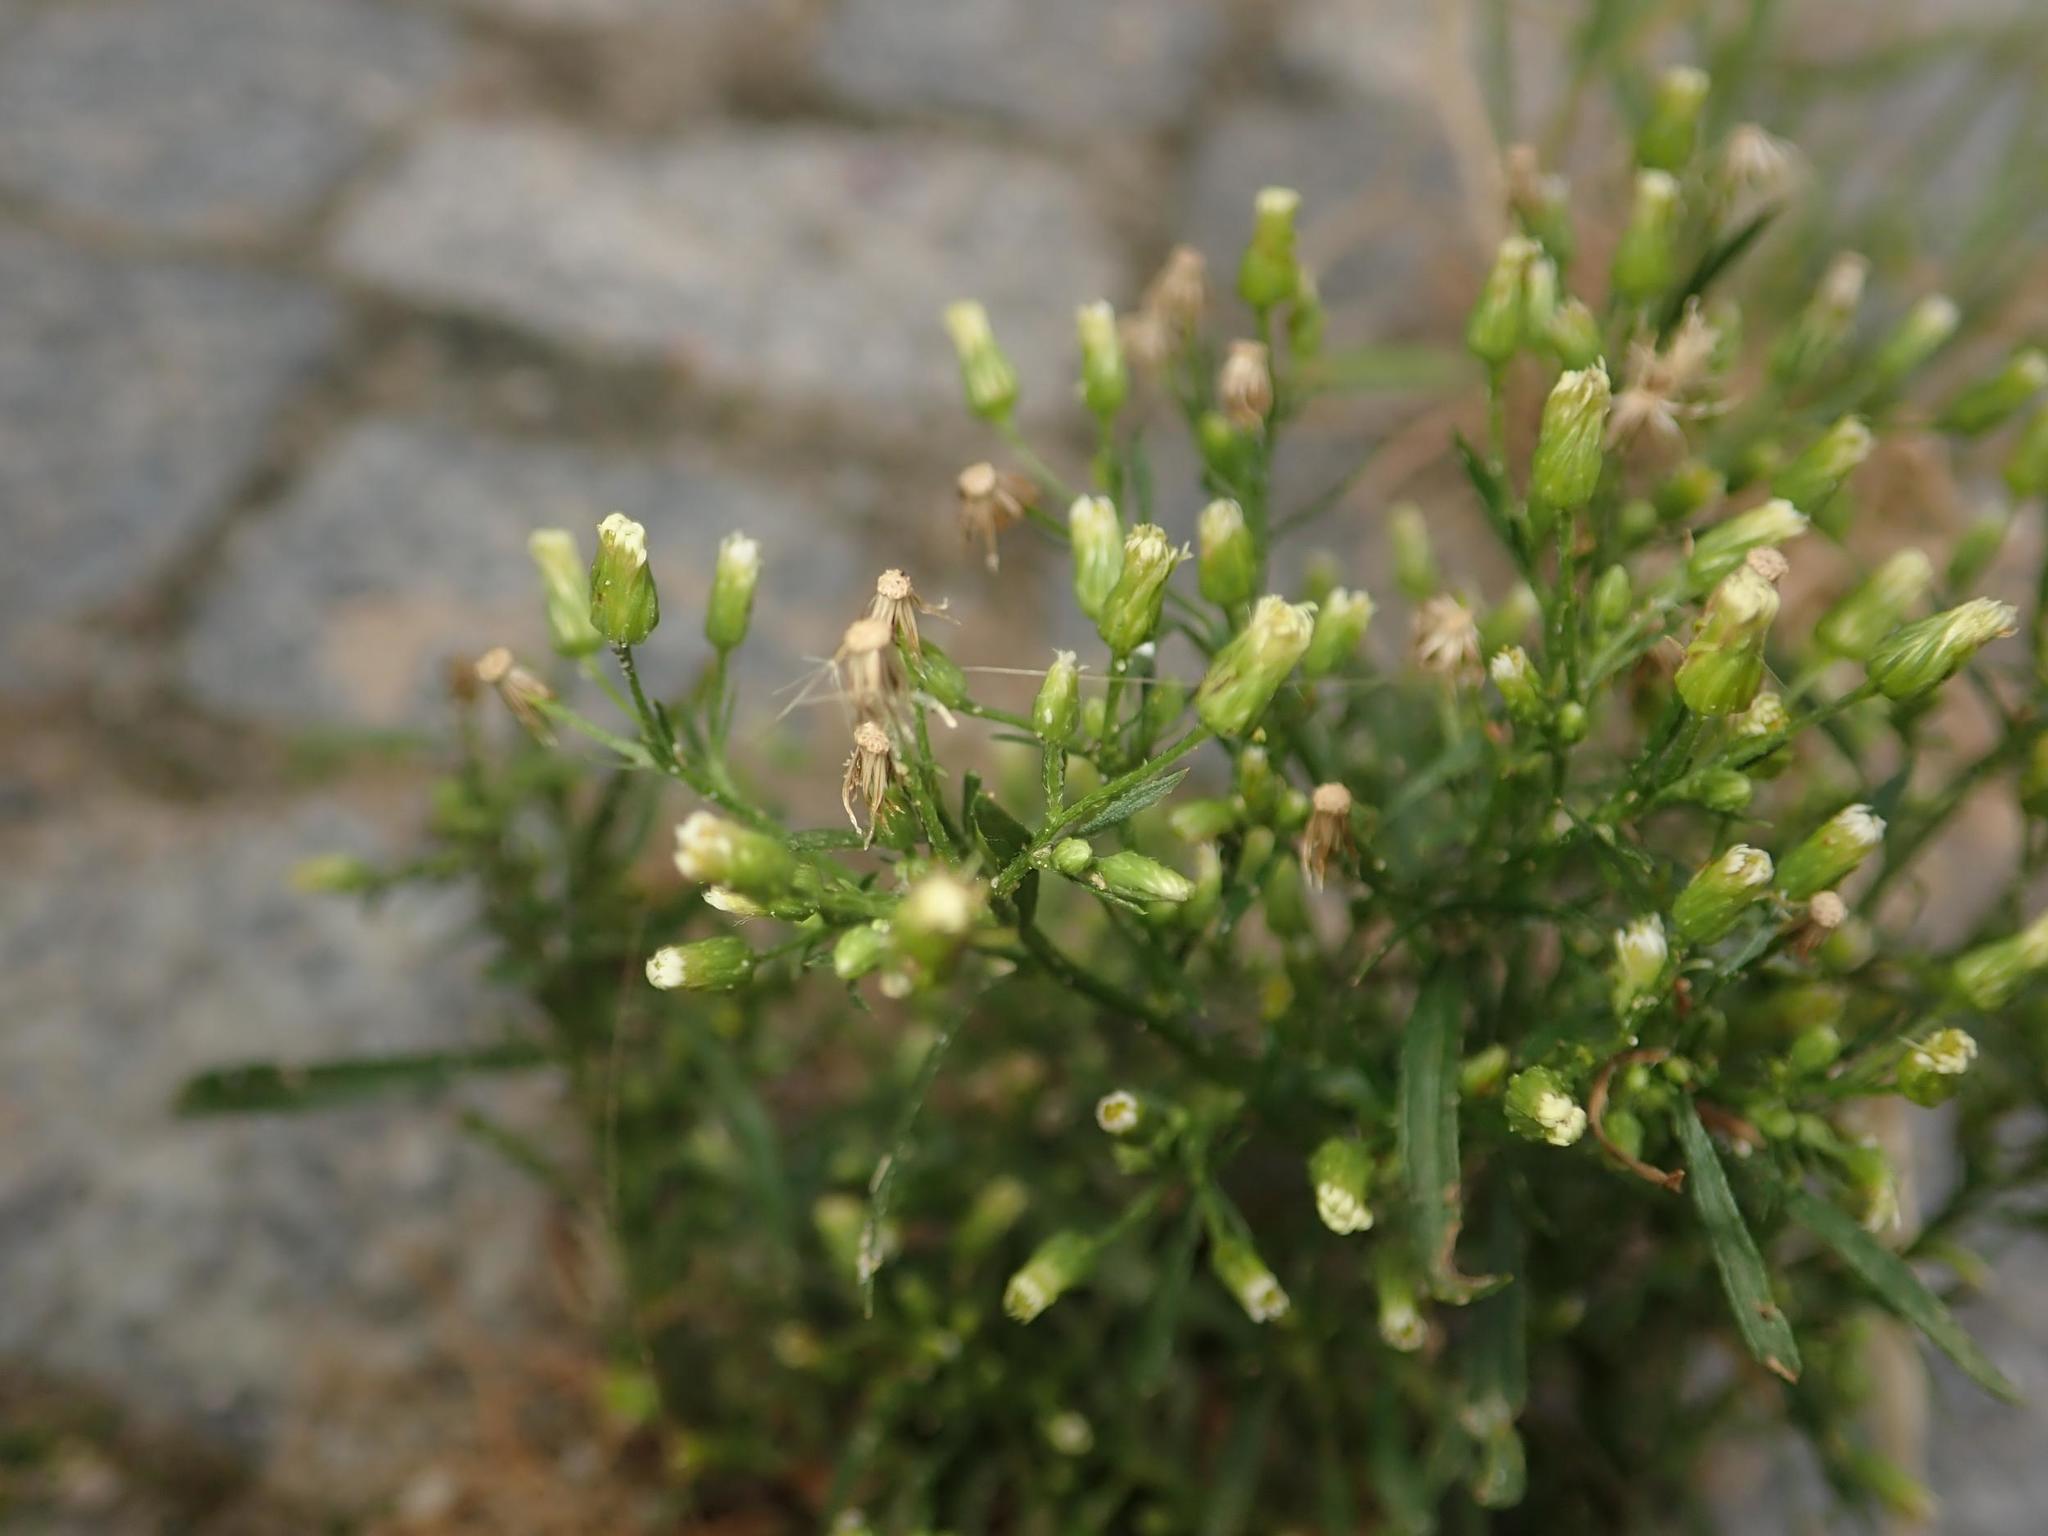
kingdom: Plantae
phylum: Tracheophyta
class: Magnoliopsida
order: Asterales
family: Asteraceae
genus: Erigeron
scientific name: Erigeron canadensis
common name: Canadian fleabane
